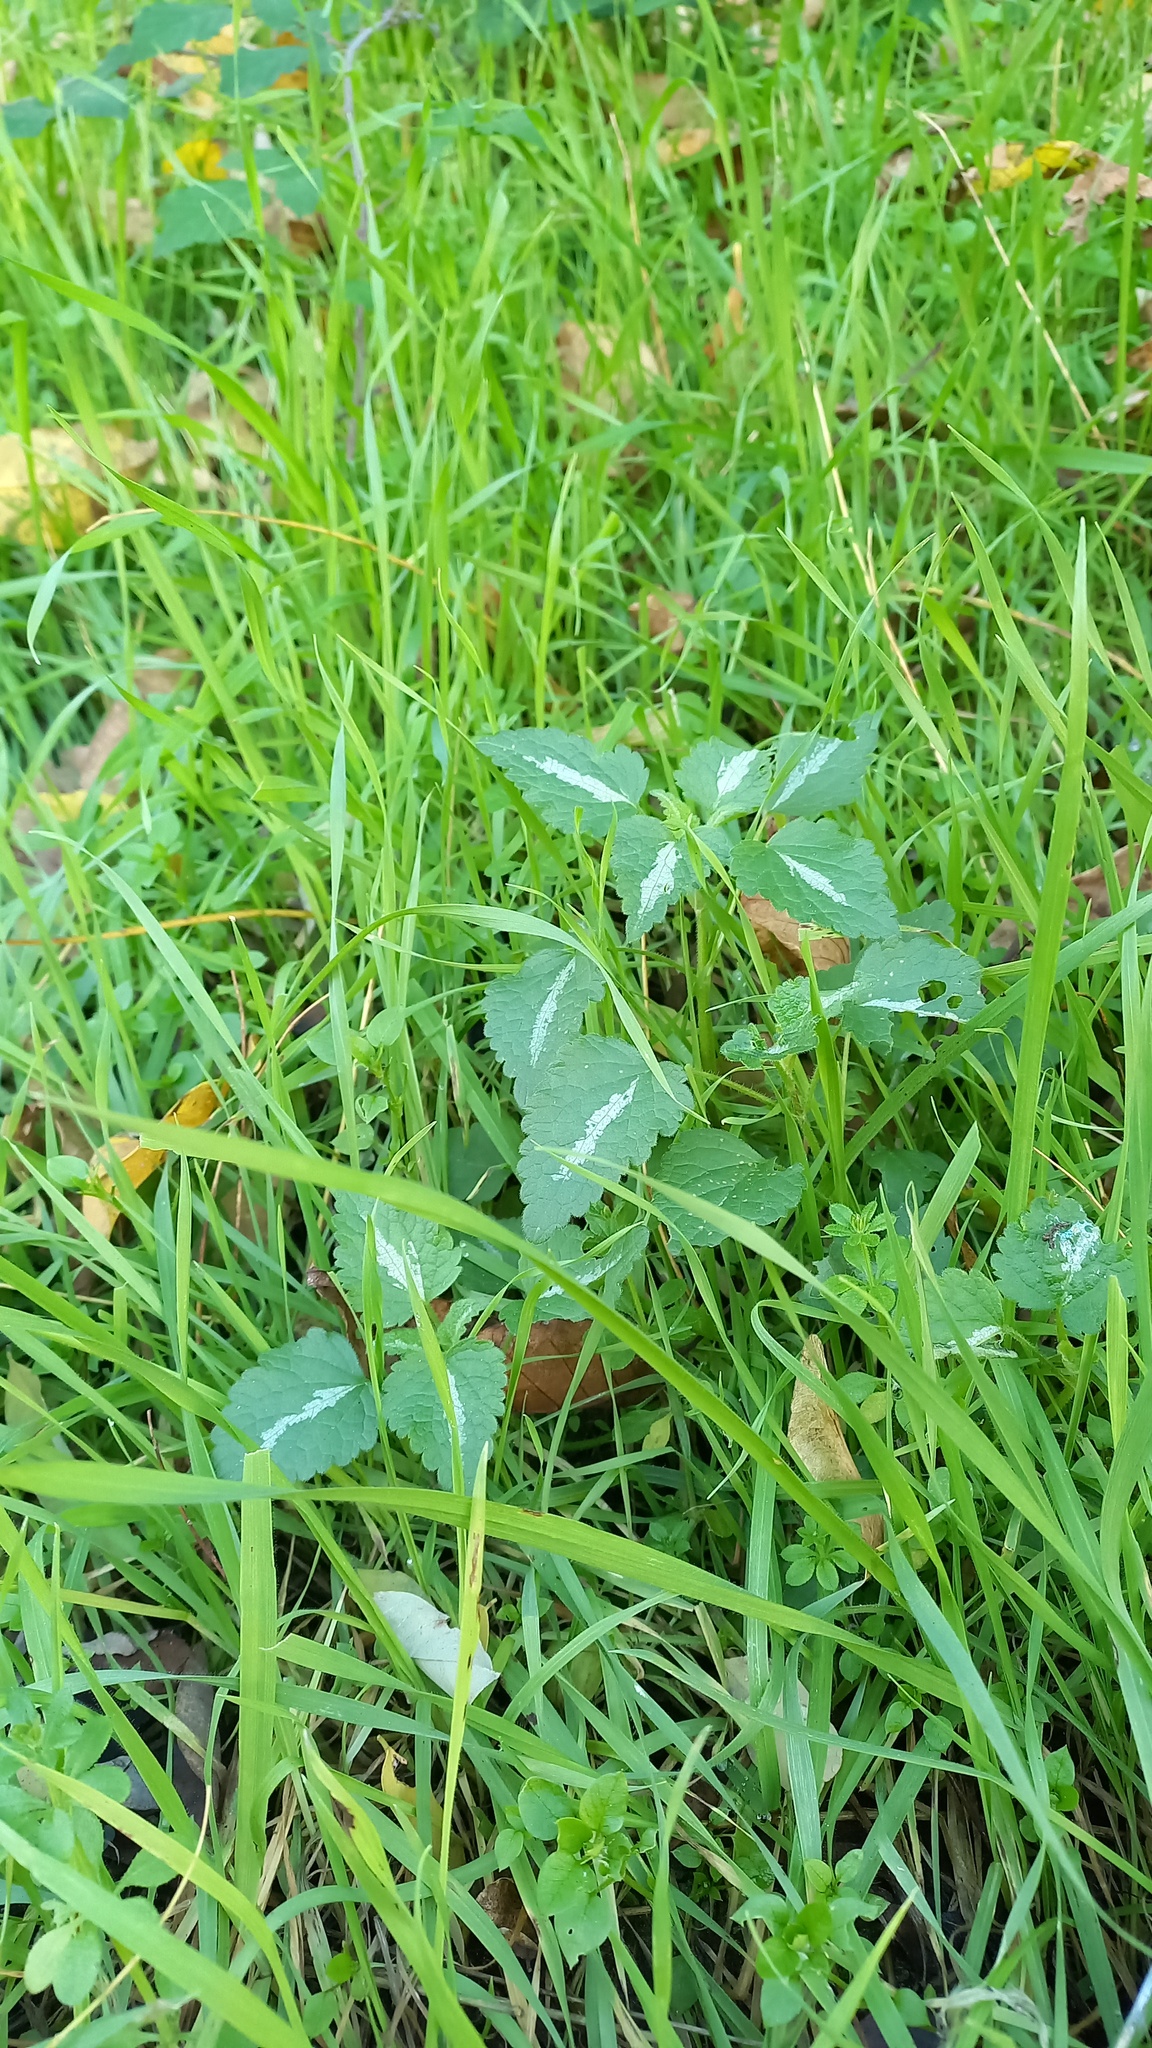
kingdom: Plantae
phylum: Tracheophyta
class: Magnoliopsida
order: Lamiales
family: Lamiaceae
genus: Lamium
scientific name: Lamium maculatum
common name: Spotted dead-nettle
